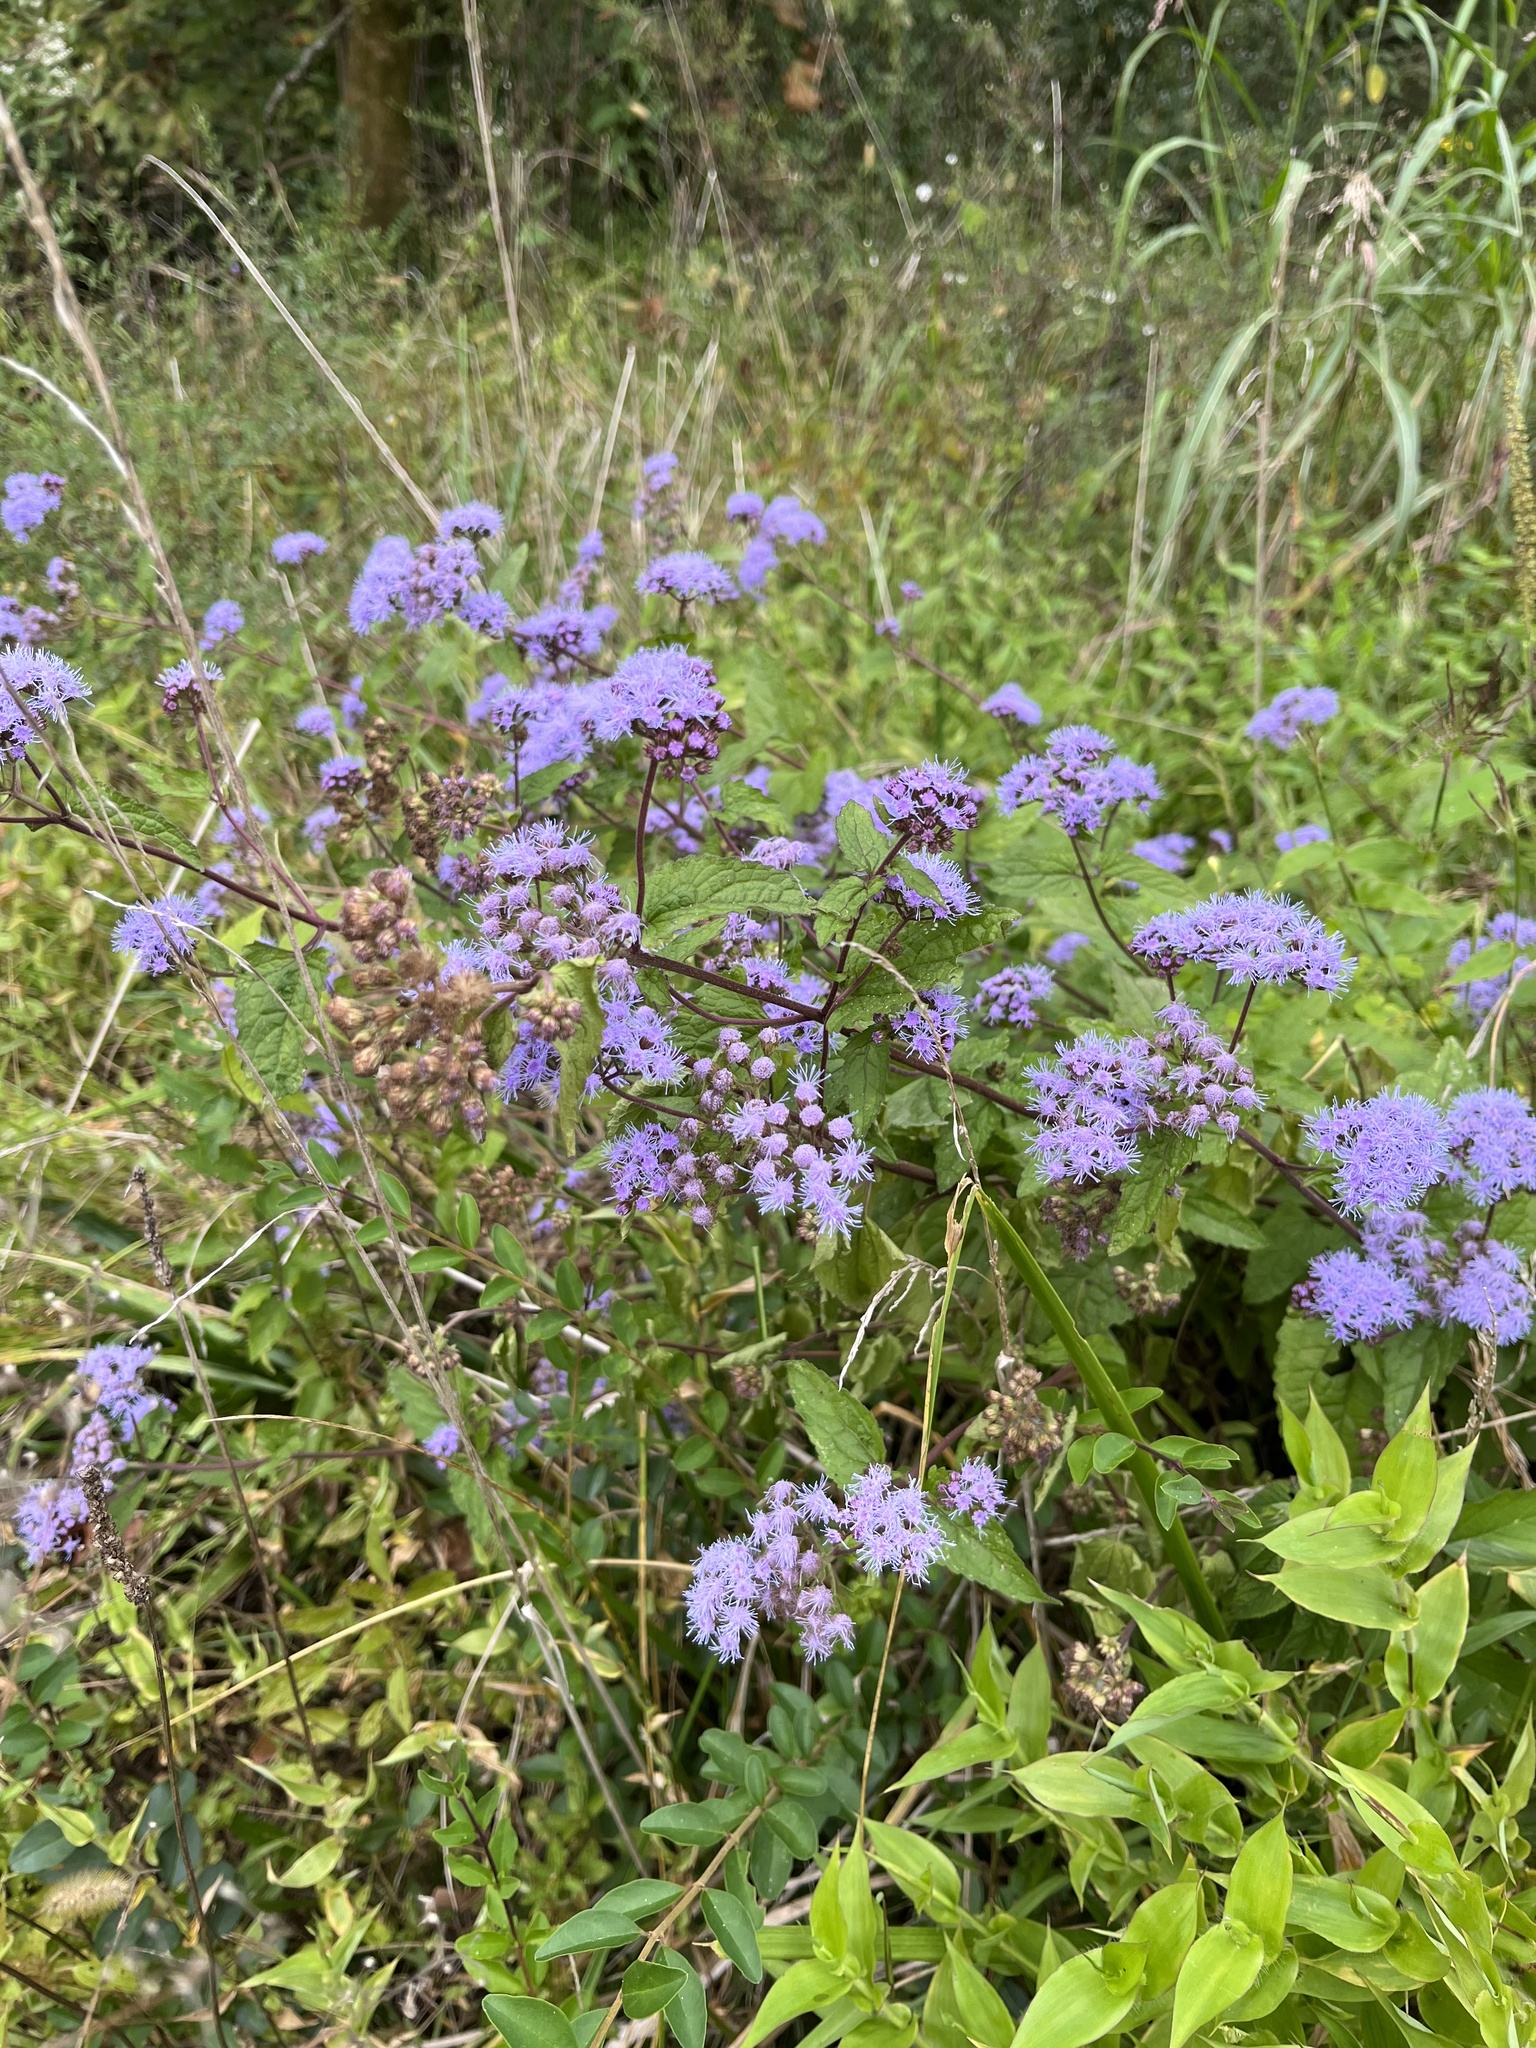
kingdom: Plantae
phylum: Tracheophyta
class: Magnoliopsida
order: Asterales
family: Asteraceae
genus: Conoclinium
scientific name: Conoclinium coelestinum
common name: Blue mistflower
